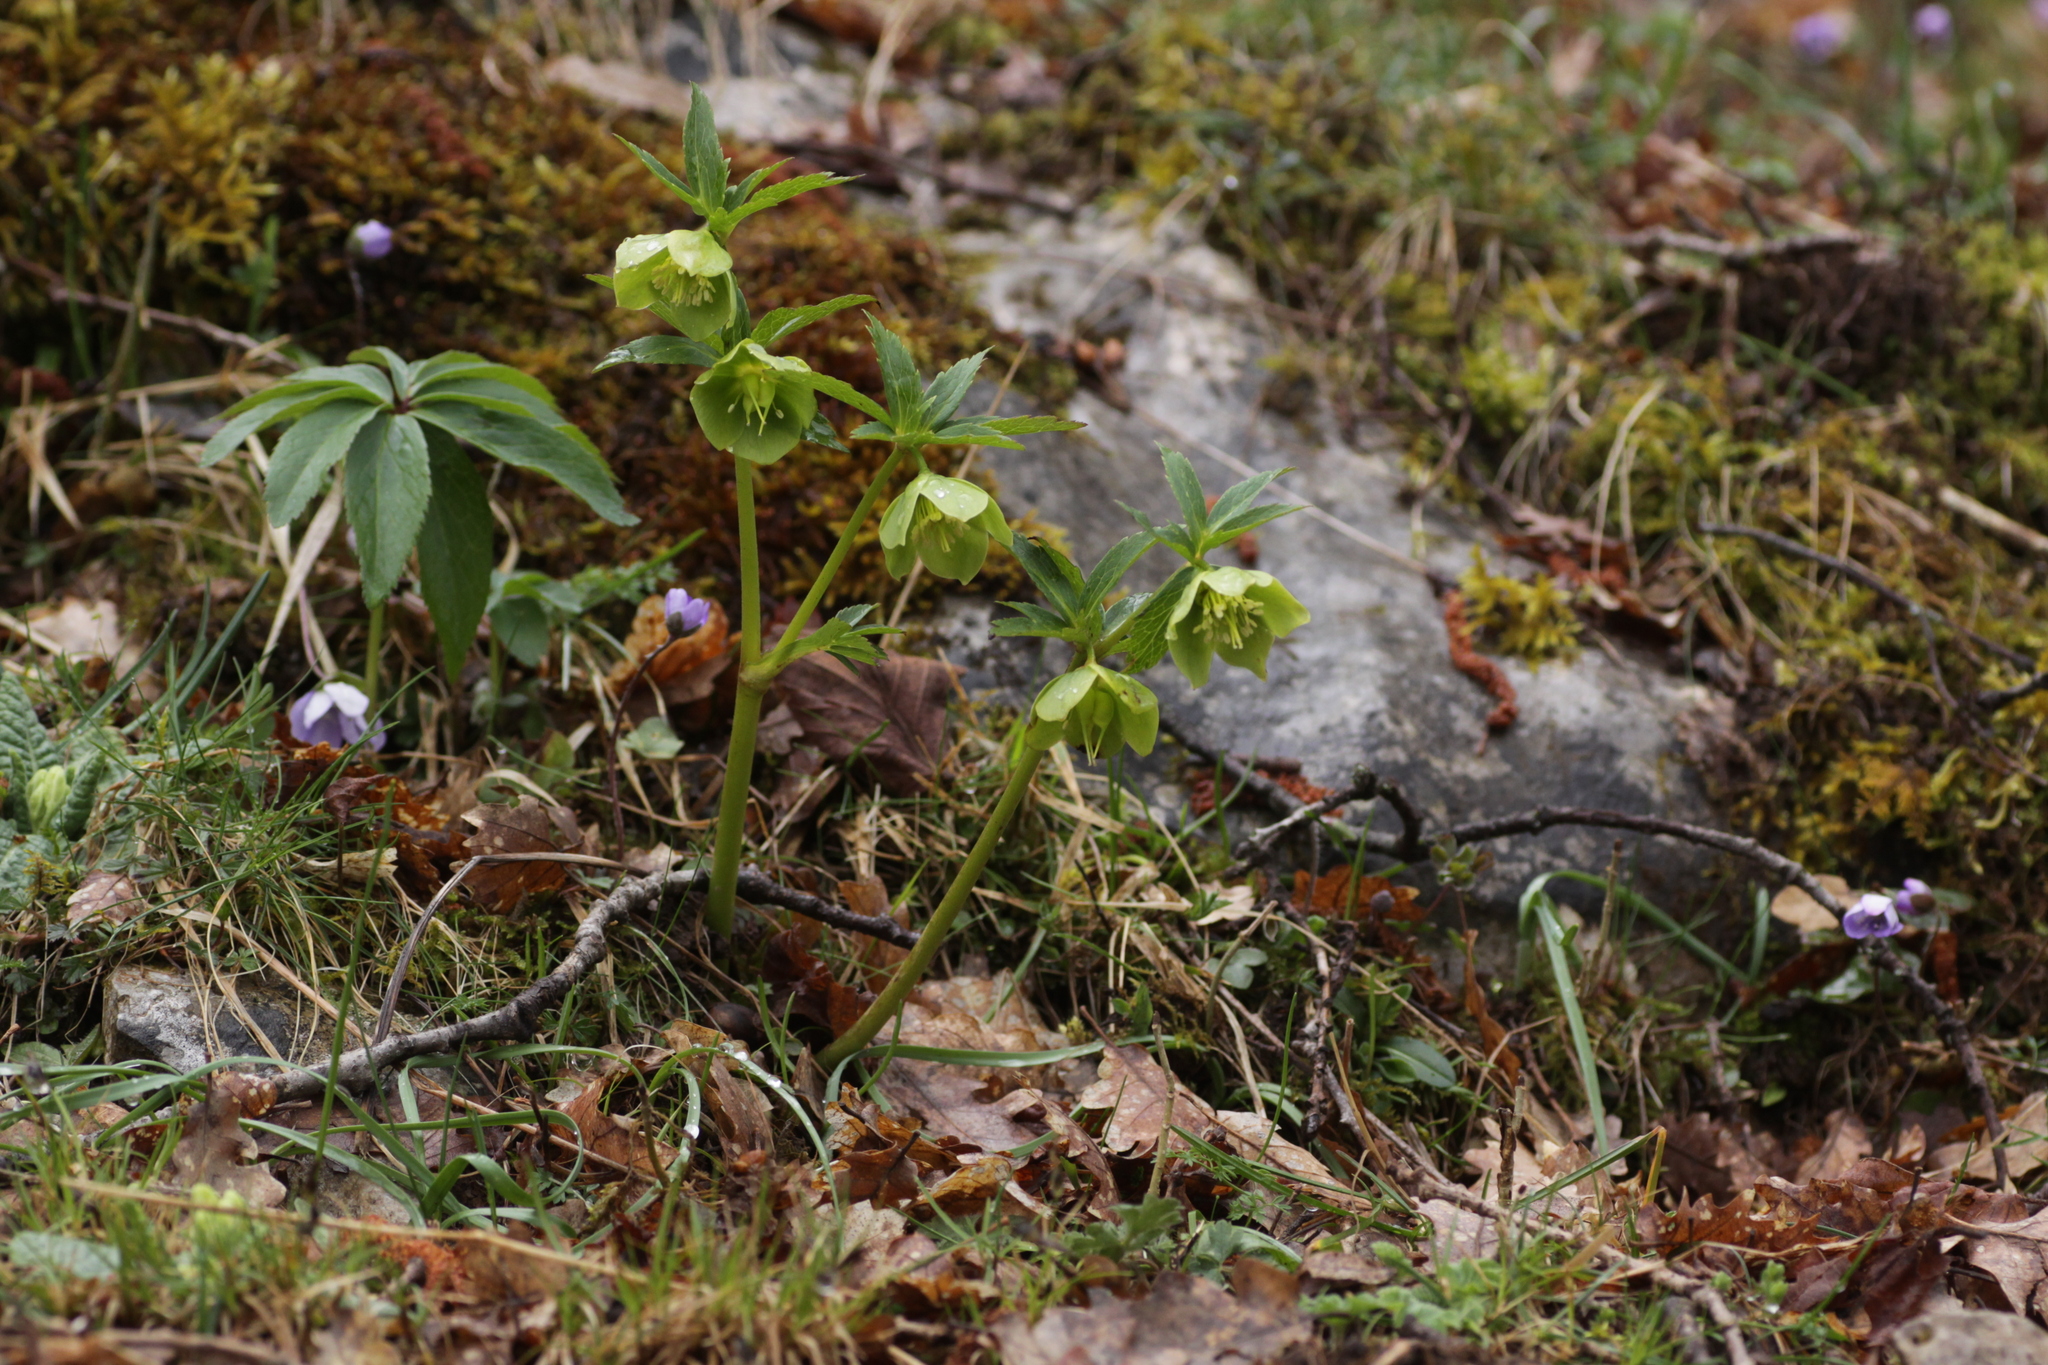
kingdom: Plantae
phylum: Tracheophyta
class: Magnoliopsida
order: Ranunculales
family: Ranunculaceae
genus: Helleborus
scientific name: Helleborus viridis
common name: Green hellebore
